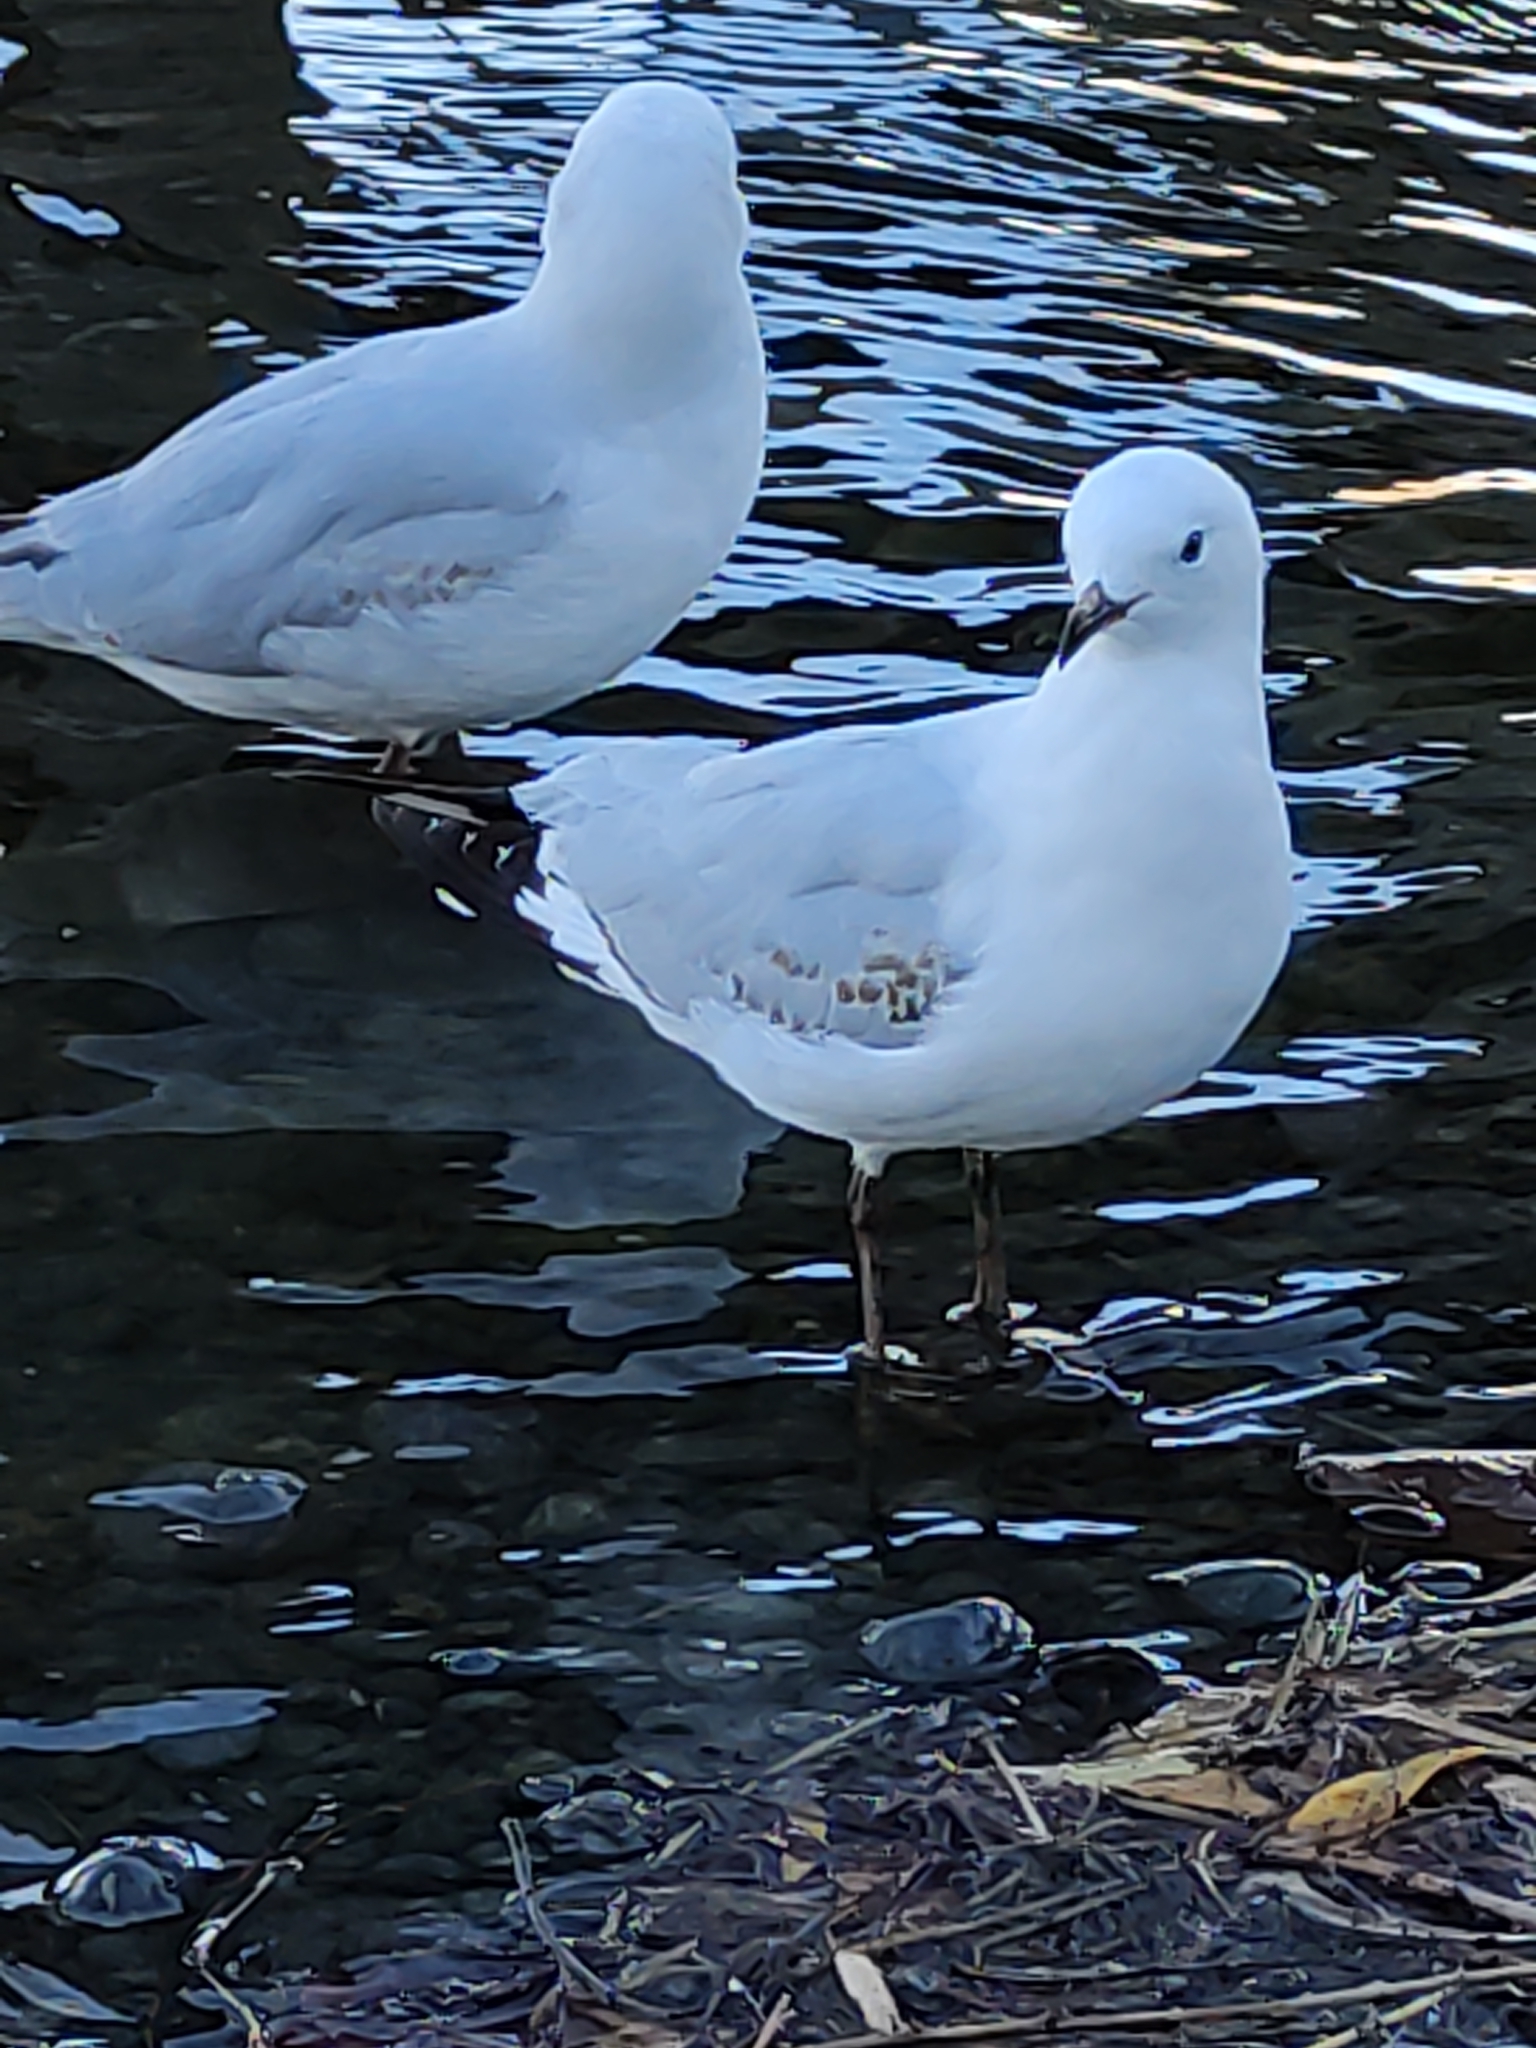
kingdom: Animalia
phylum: Chordata
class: Aves
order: Charadriiformes
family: Laridae
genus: Chroicocephalus
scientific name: Chroicocephalus novaehollandiae
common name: Silver gull
